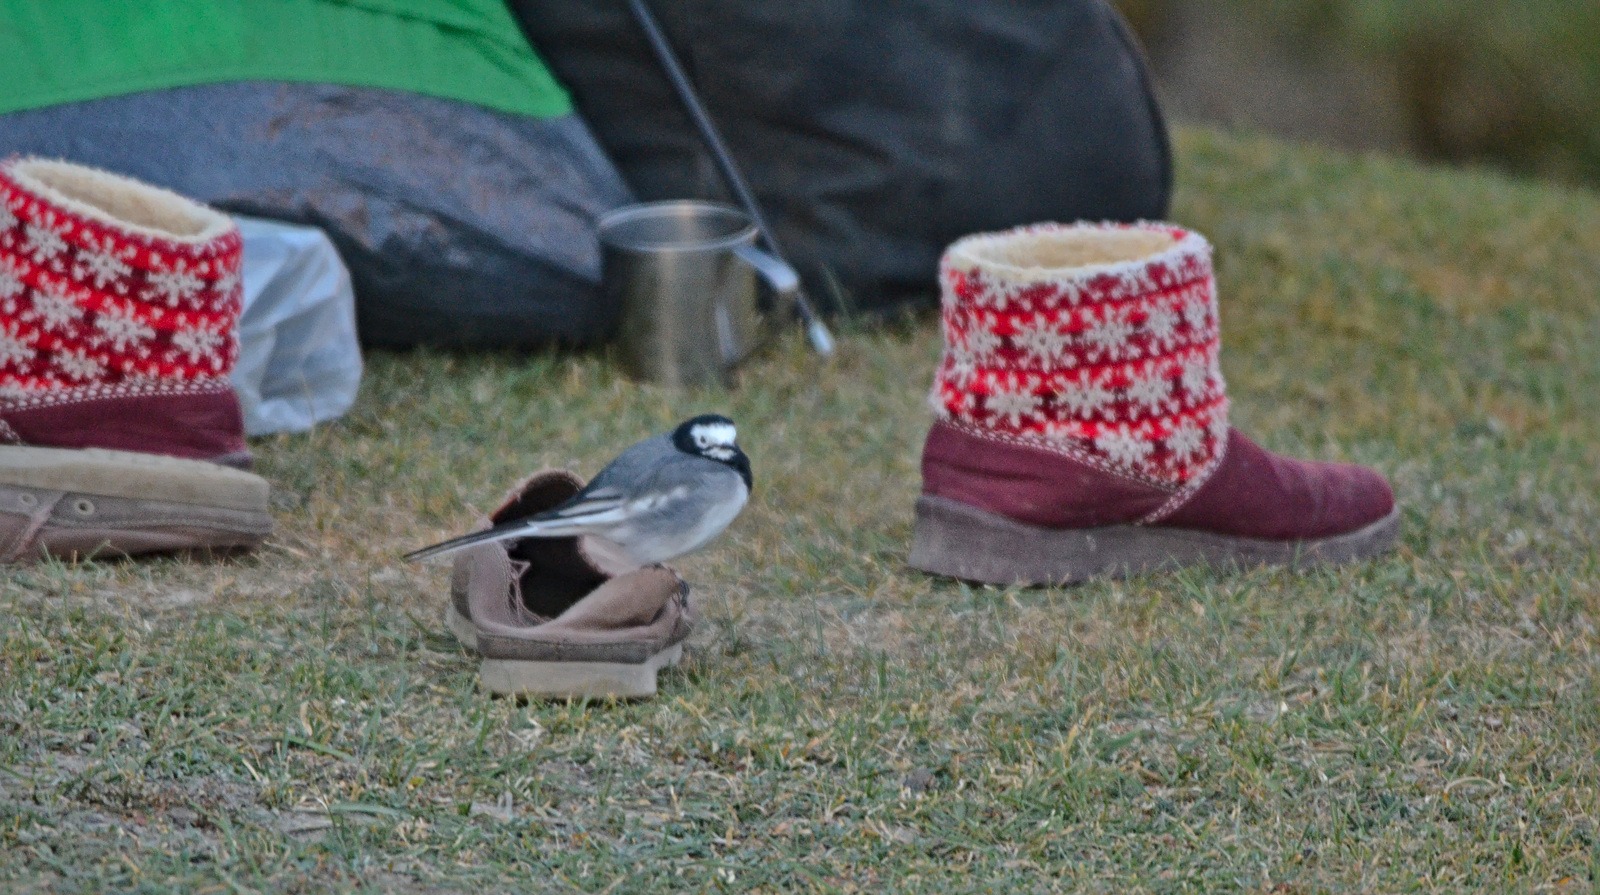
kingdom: Animalia
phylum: Chordata
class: Aves
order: Passeriformes
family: Motacillidae
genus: Motacilla
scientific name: Motacilla alba
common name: White wagtail
